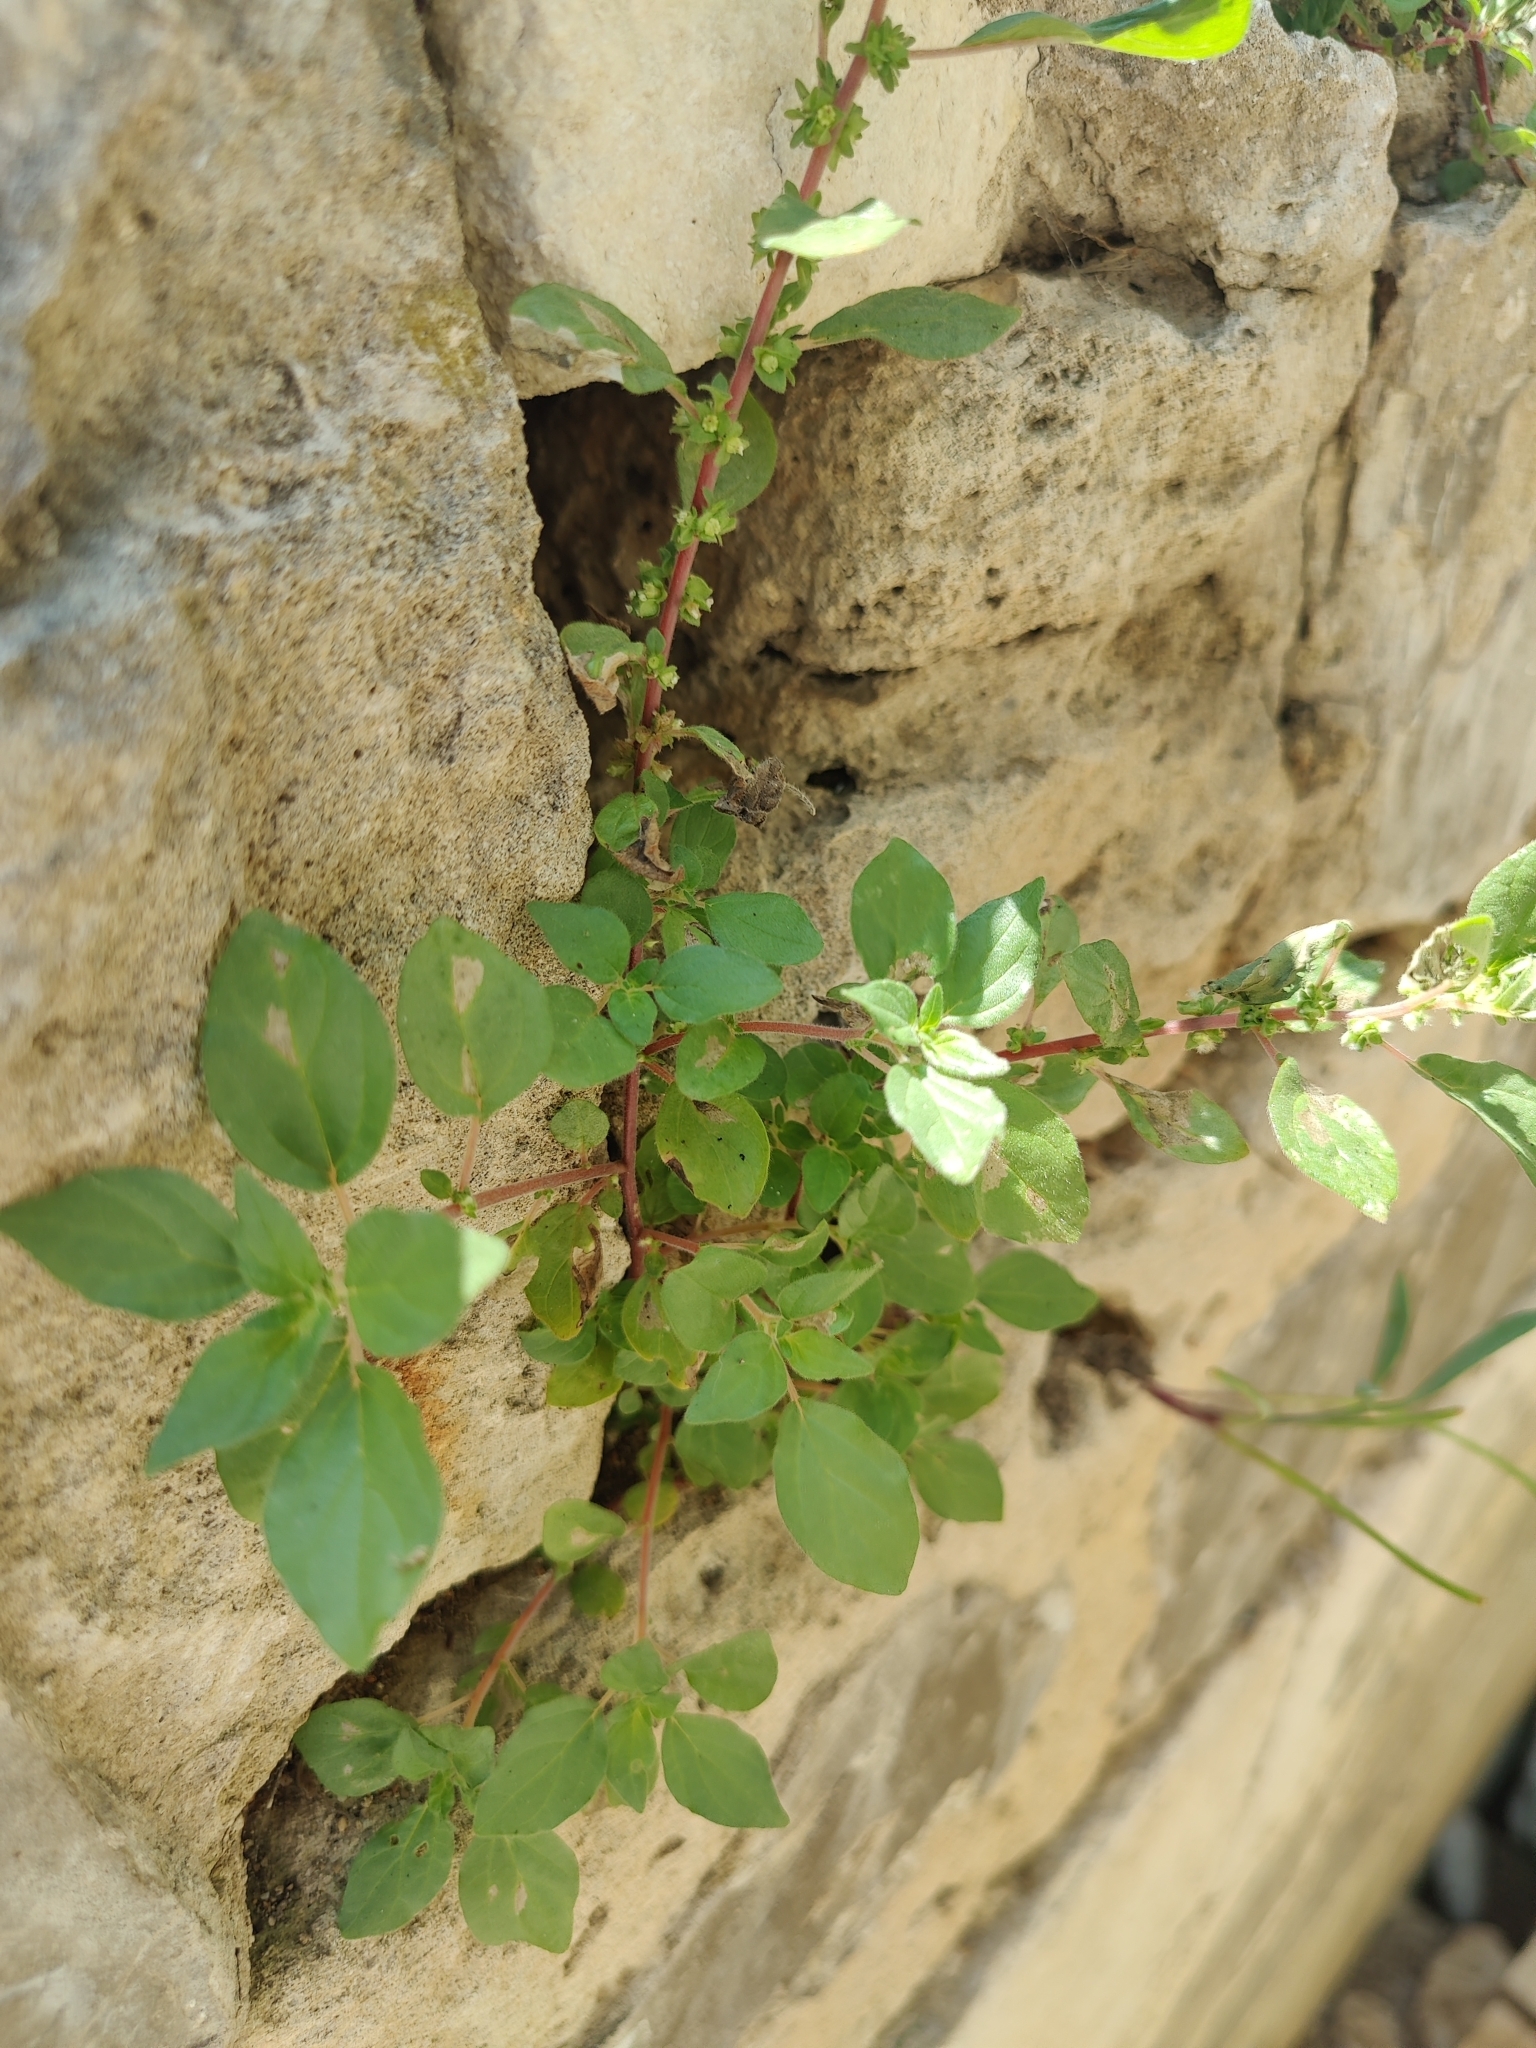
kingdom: Plantae
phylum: Tracheophyta
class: Magnoliopsida
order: Rosales
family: Urticaceae
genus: Parietaria
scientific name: Parietaria judaica
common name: Pellitory-of-the-wall
